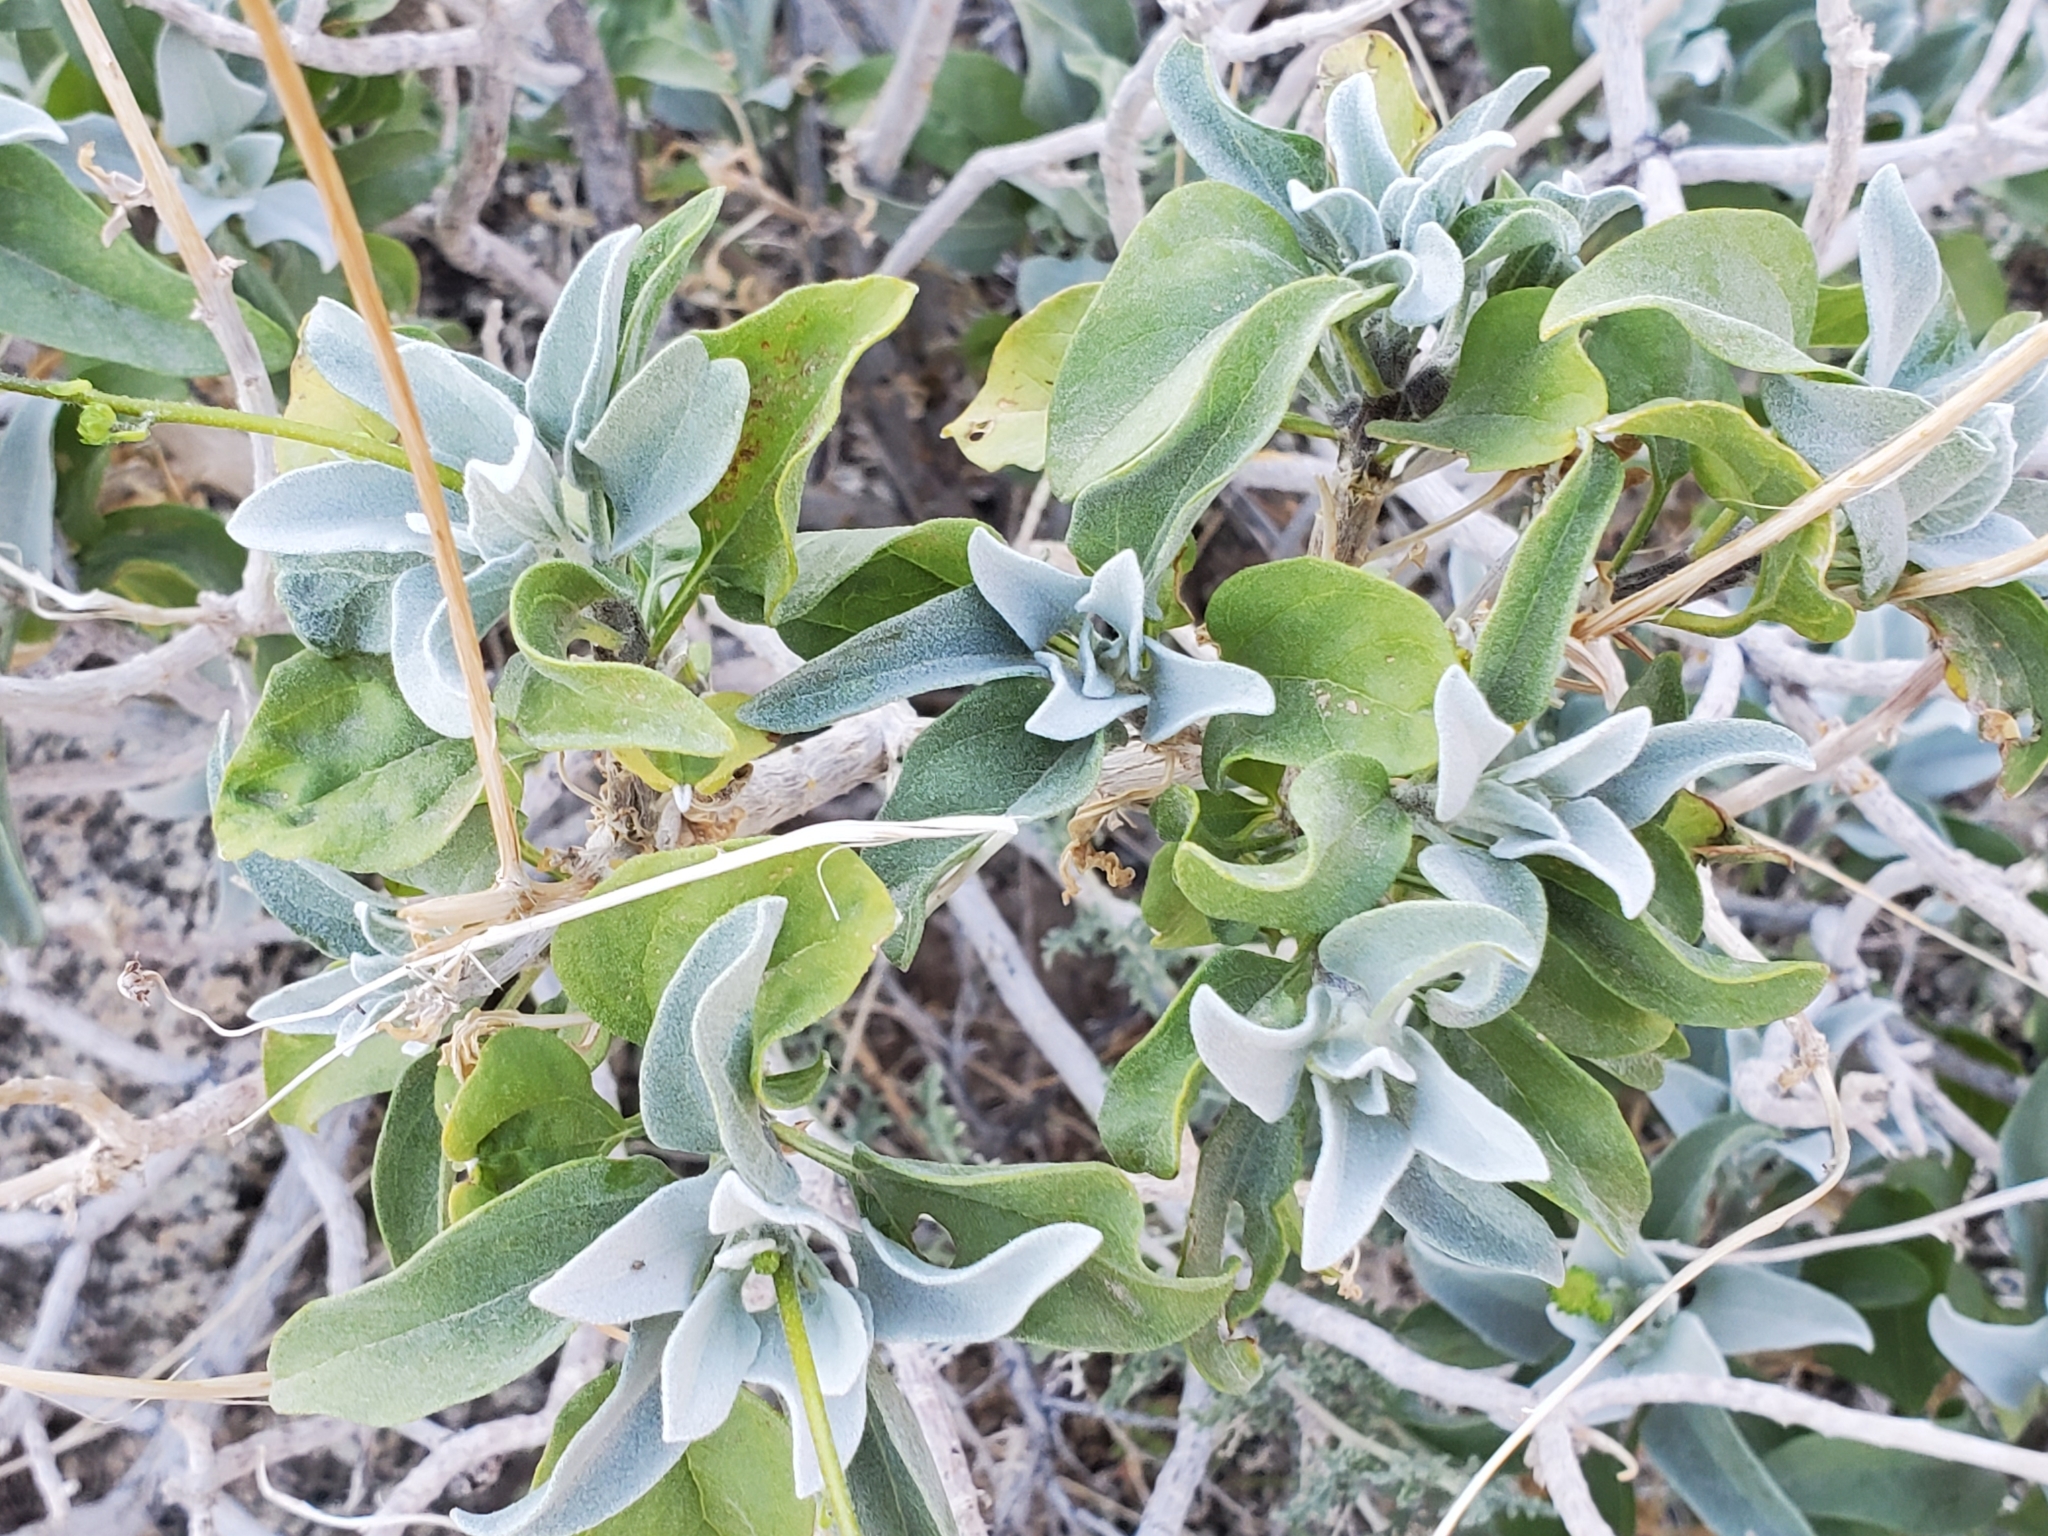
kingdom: Plantae
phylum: Tracheophyta
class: Magnoliopsida
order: Asterales
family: Asteraceae
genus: Encelia
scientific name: Encelia farinosa
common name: Brittlebush
